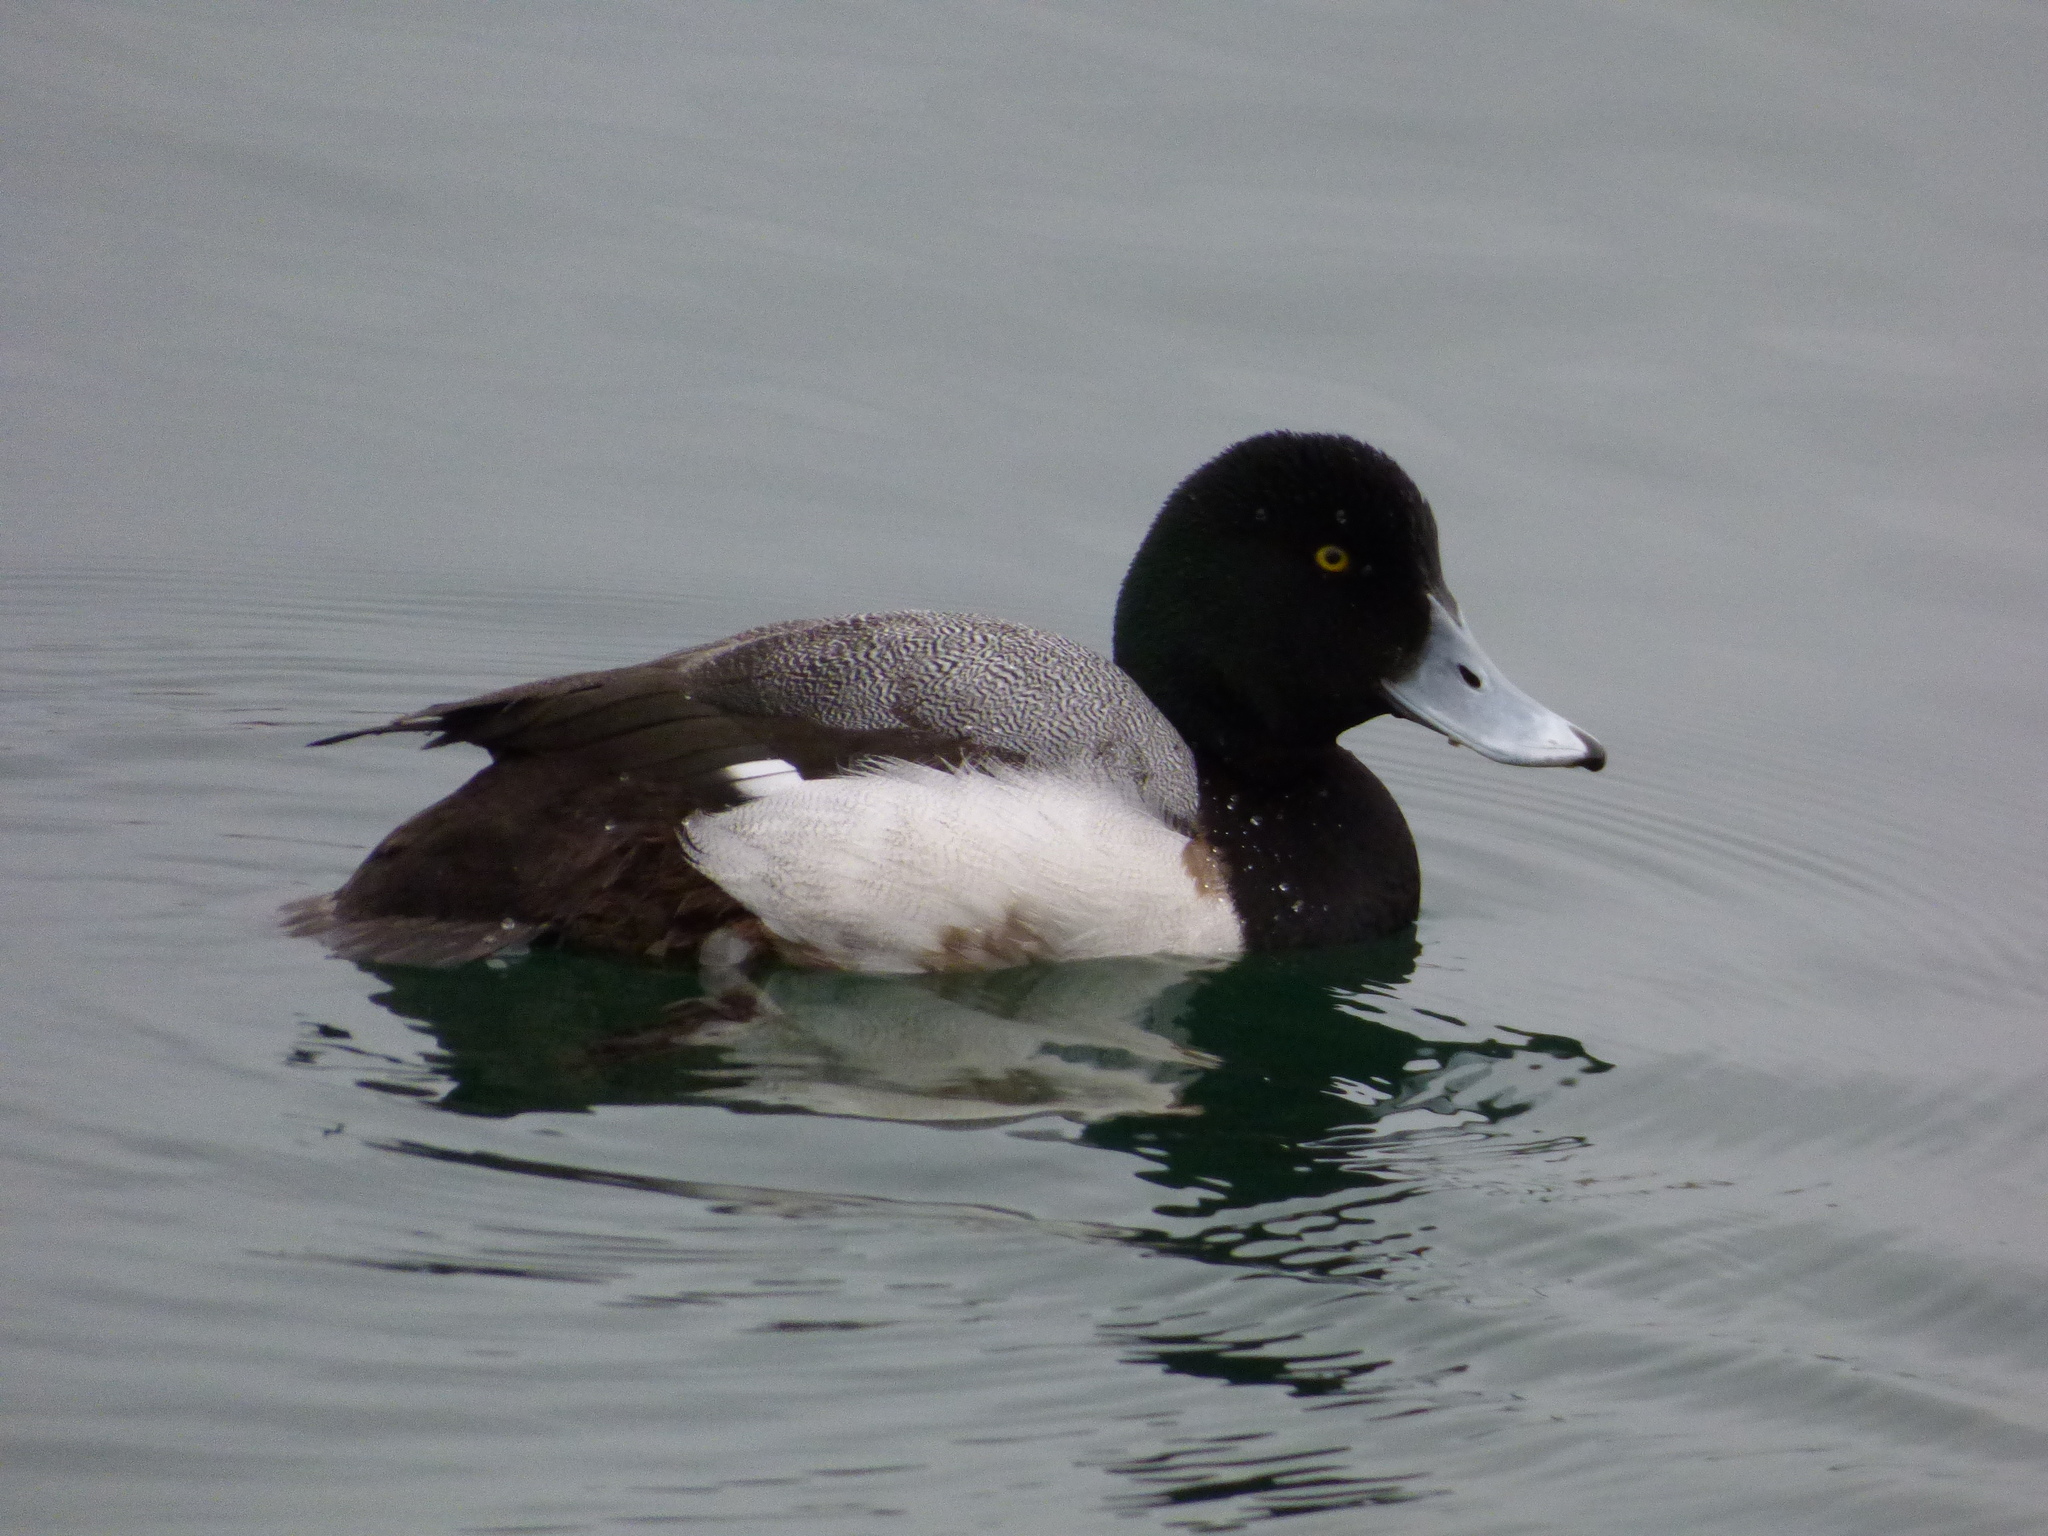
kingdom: Animalia
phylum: Chordata
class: Aves
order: Anseriformes
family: Anatidae
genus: Aythya
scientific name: Aythya marila
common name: Greater scaup
